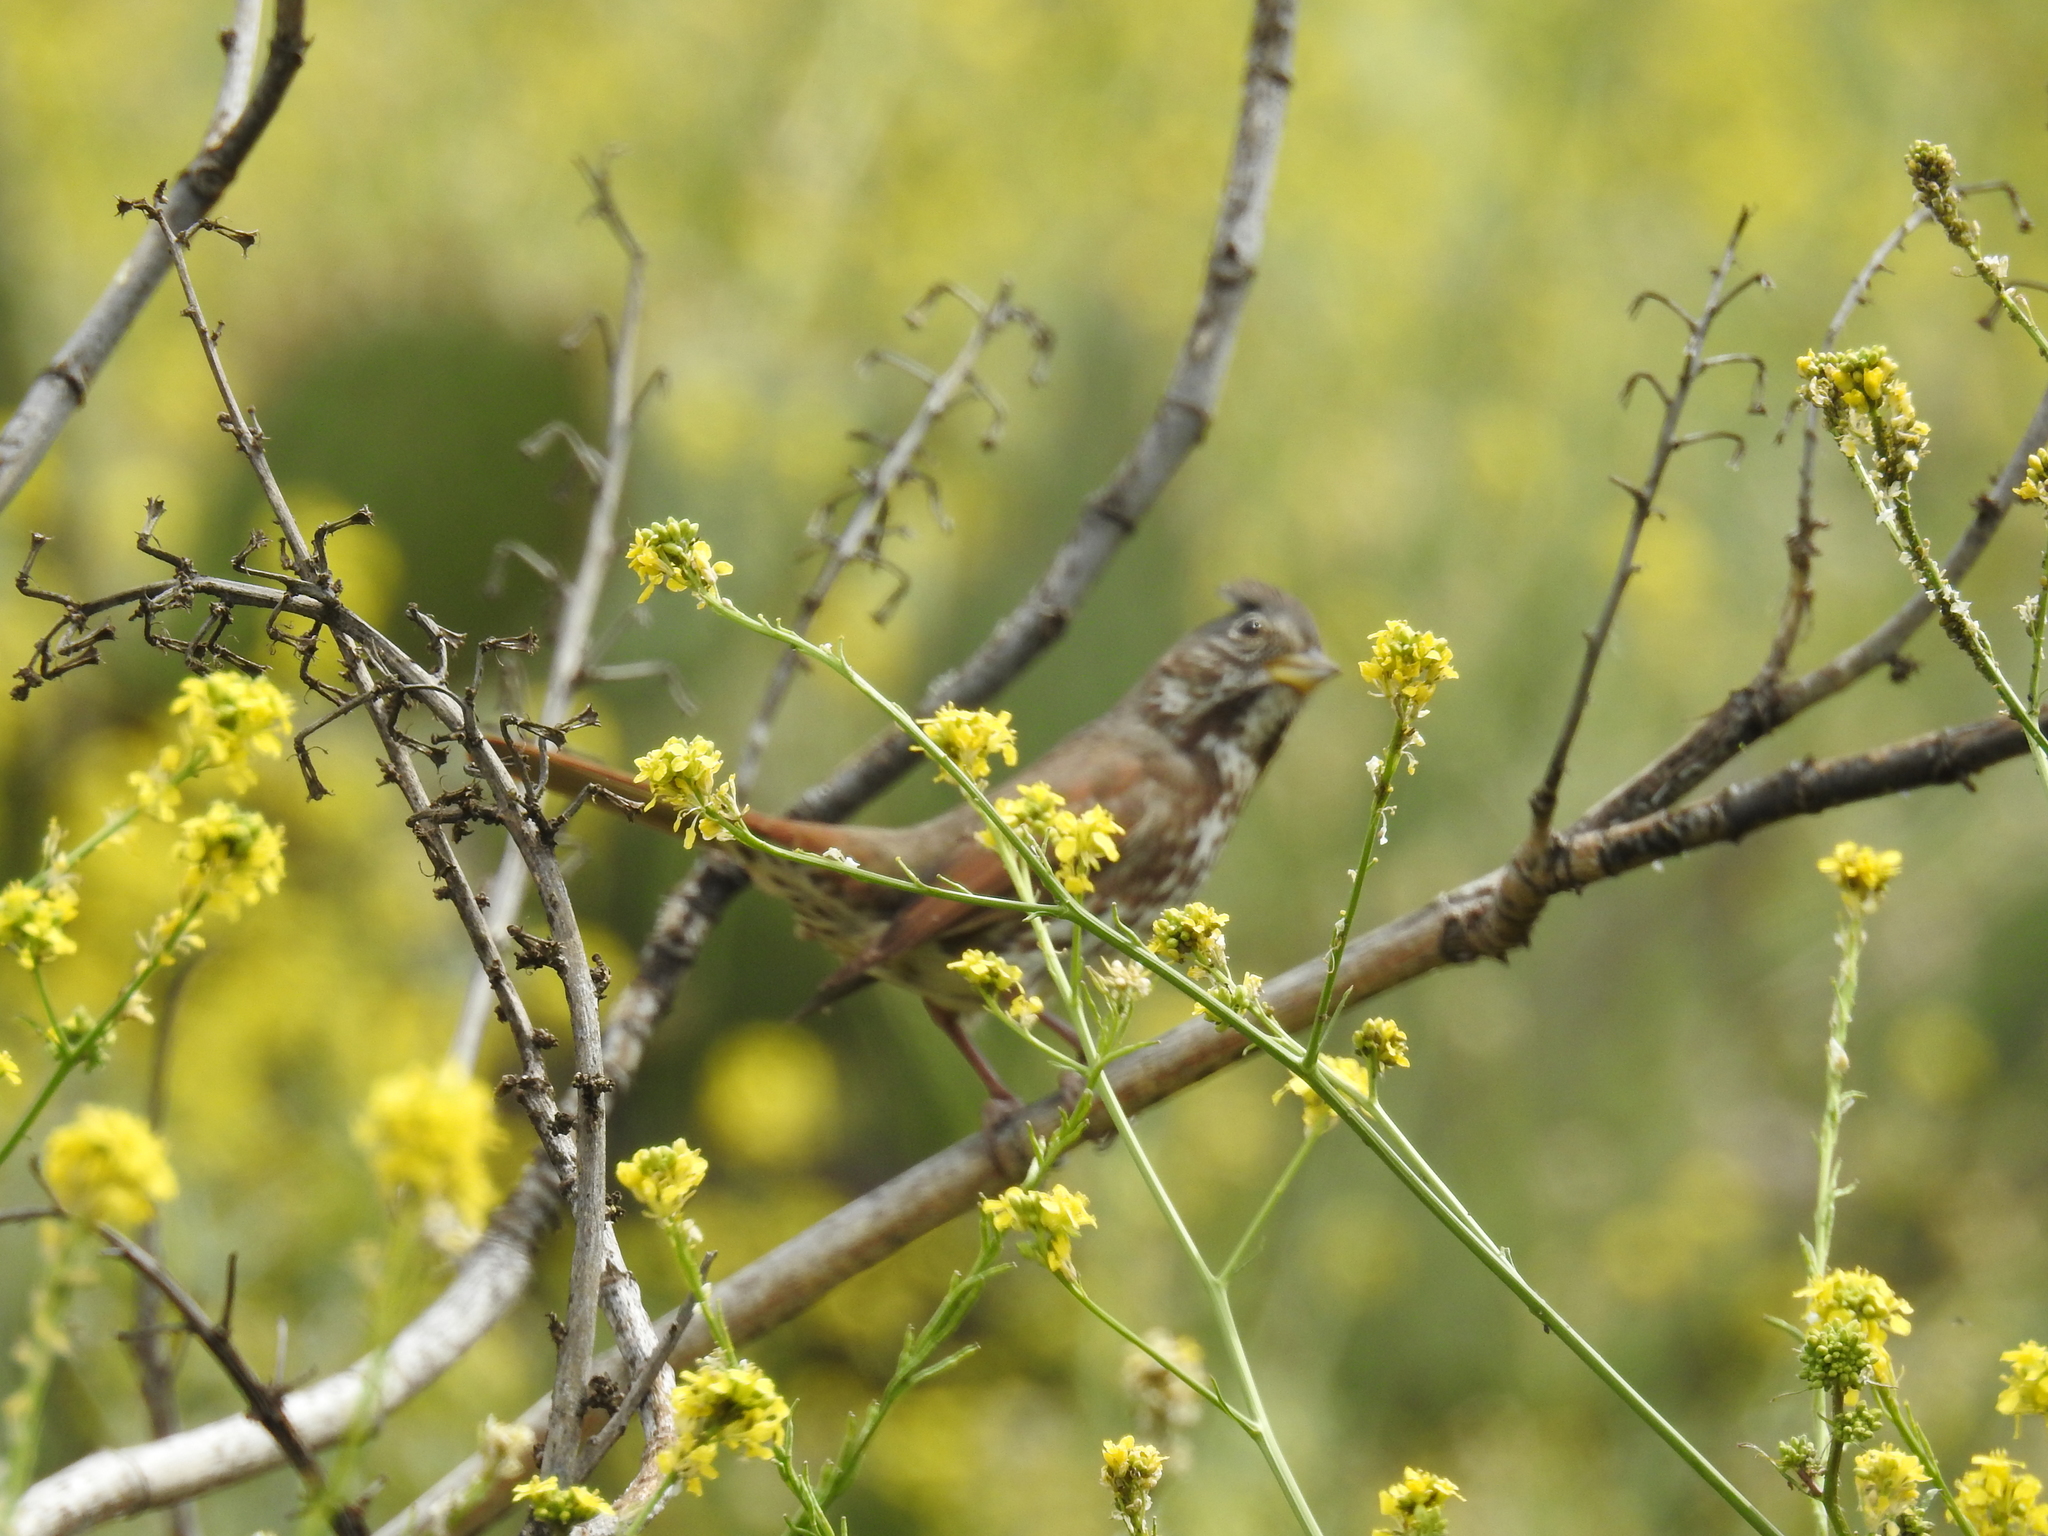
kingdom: Animalia
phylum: Chordata
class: Aves
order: Passeriformes
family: Passerellidae
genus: Passerella
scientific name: Passerella iliaca
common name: Fox sparrow
